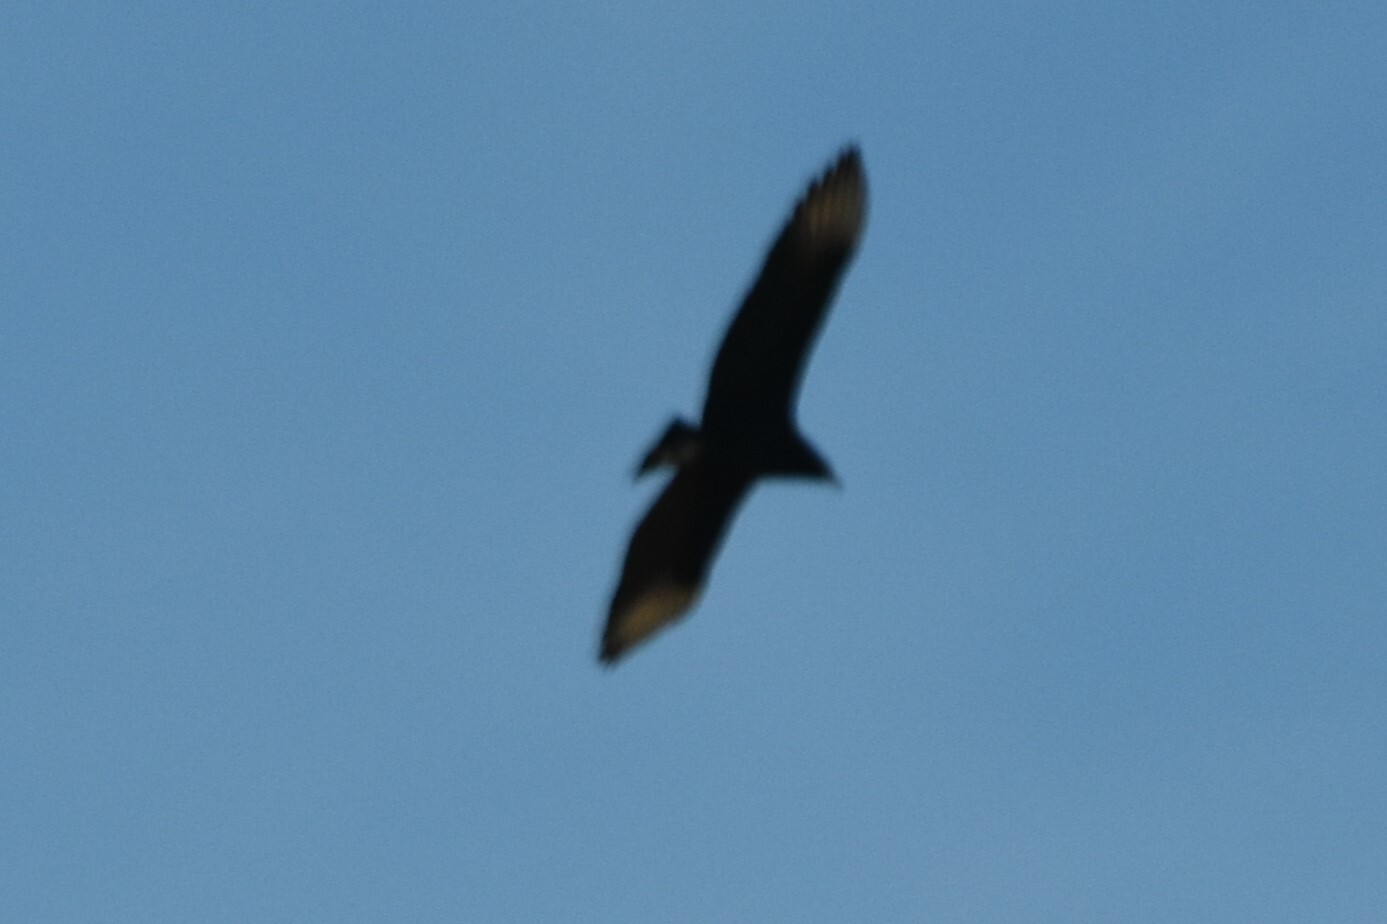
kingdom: Animalia
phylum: Chordata
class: Aves
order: Accipitriformes
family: Cathartidae
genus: Coragyps
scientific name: Coragyps atratus
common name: Black vulture
